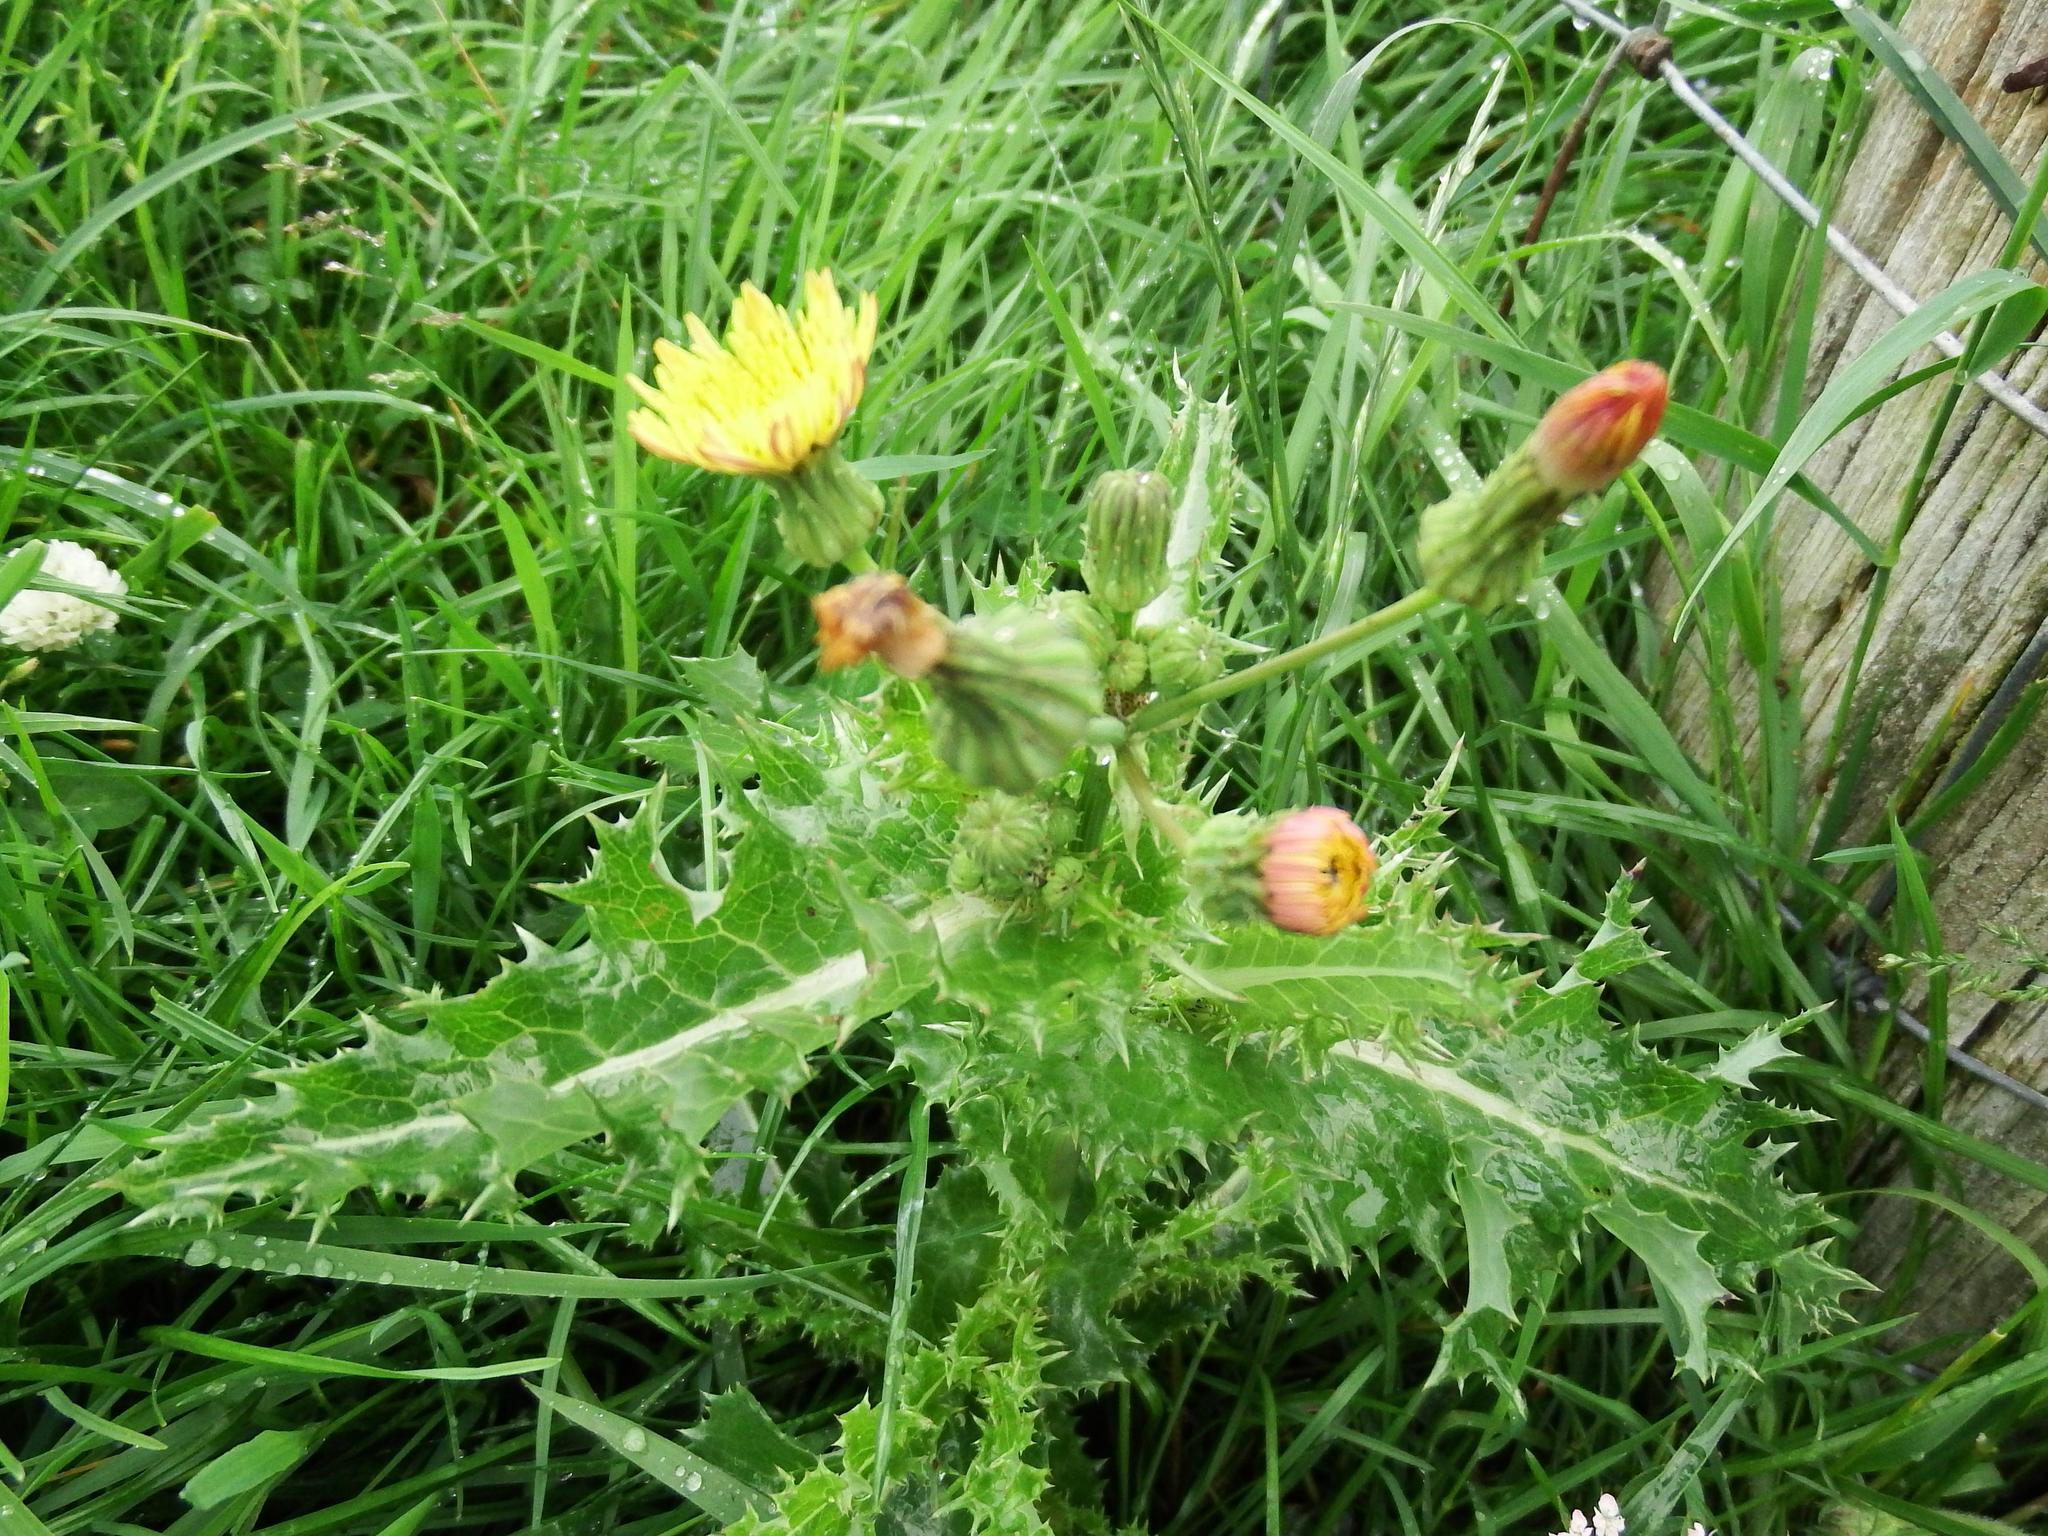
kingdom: Plantae
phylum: Tracheophyta
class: Magnoliopsida
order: Asterales
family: Asteraceae
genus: Sonchus
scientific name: Sonchus asper
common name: Prickly sow-thistle
